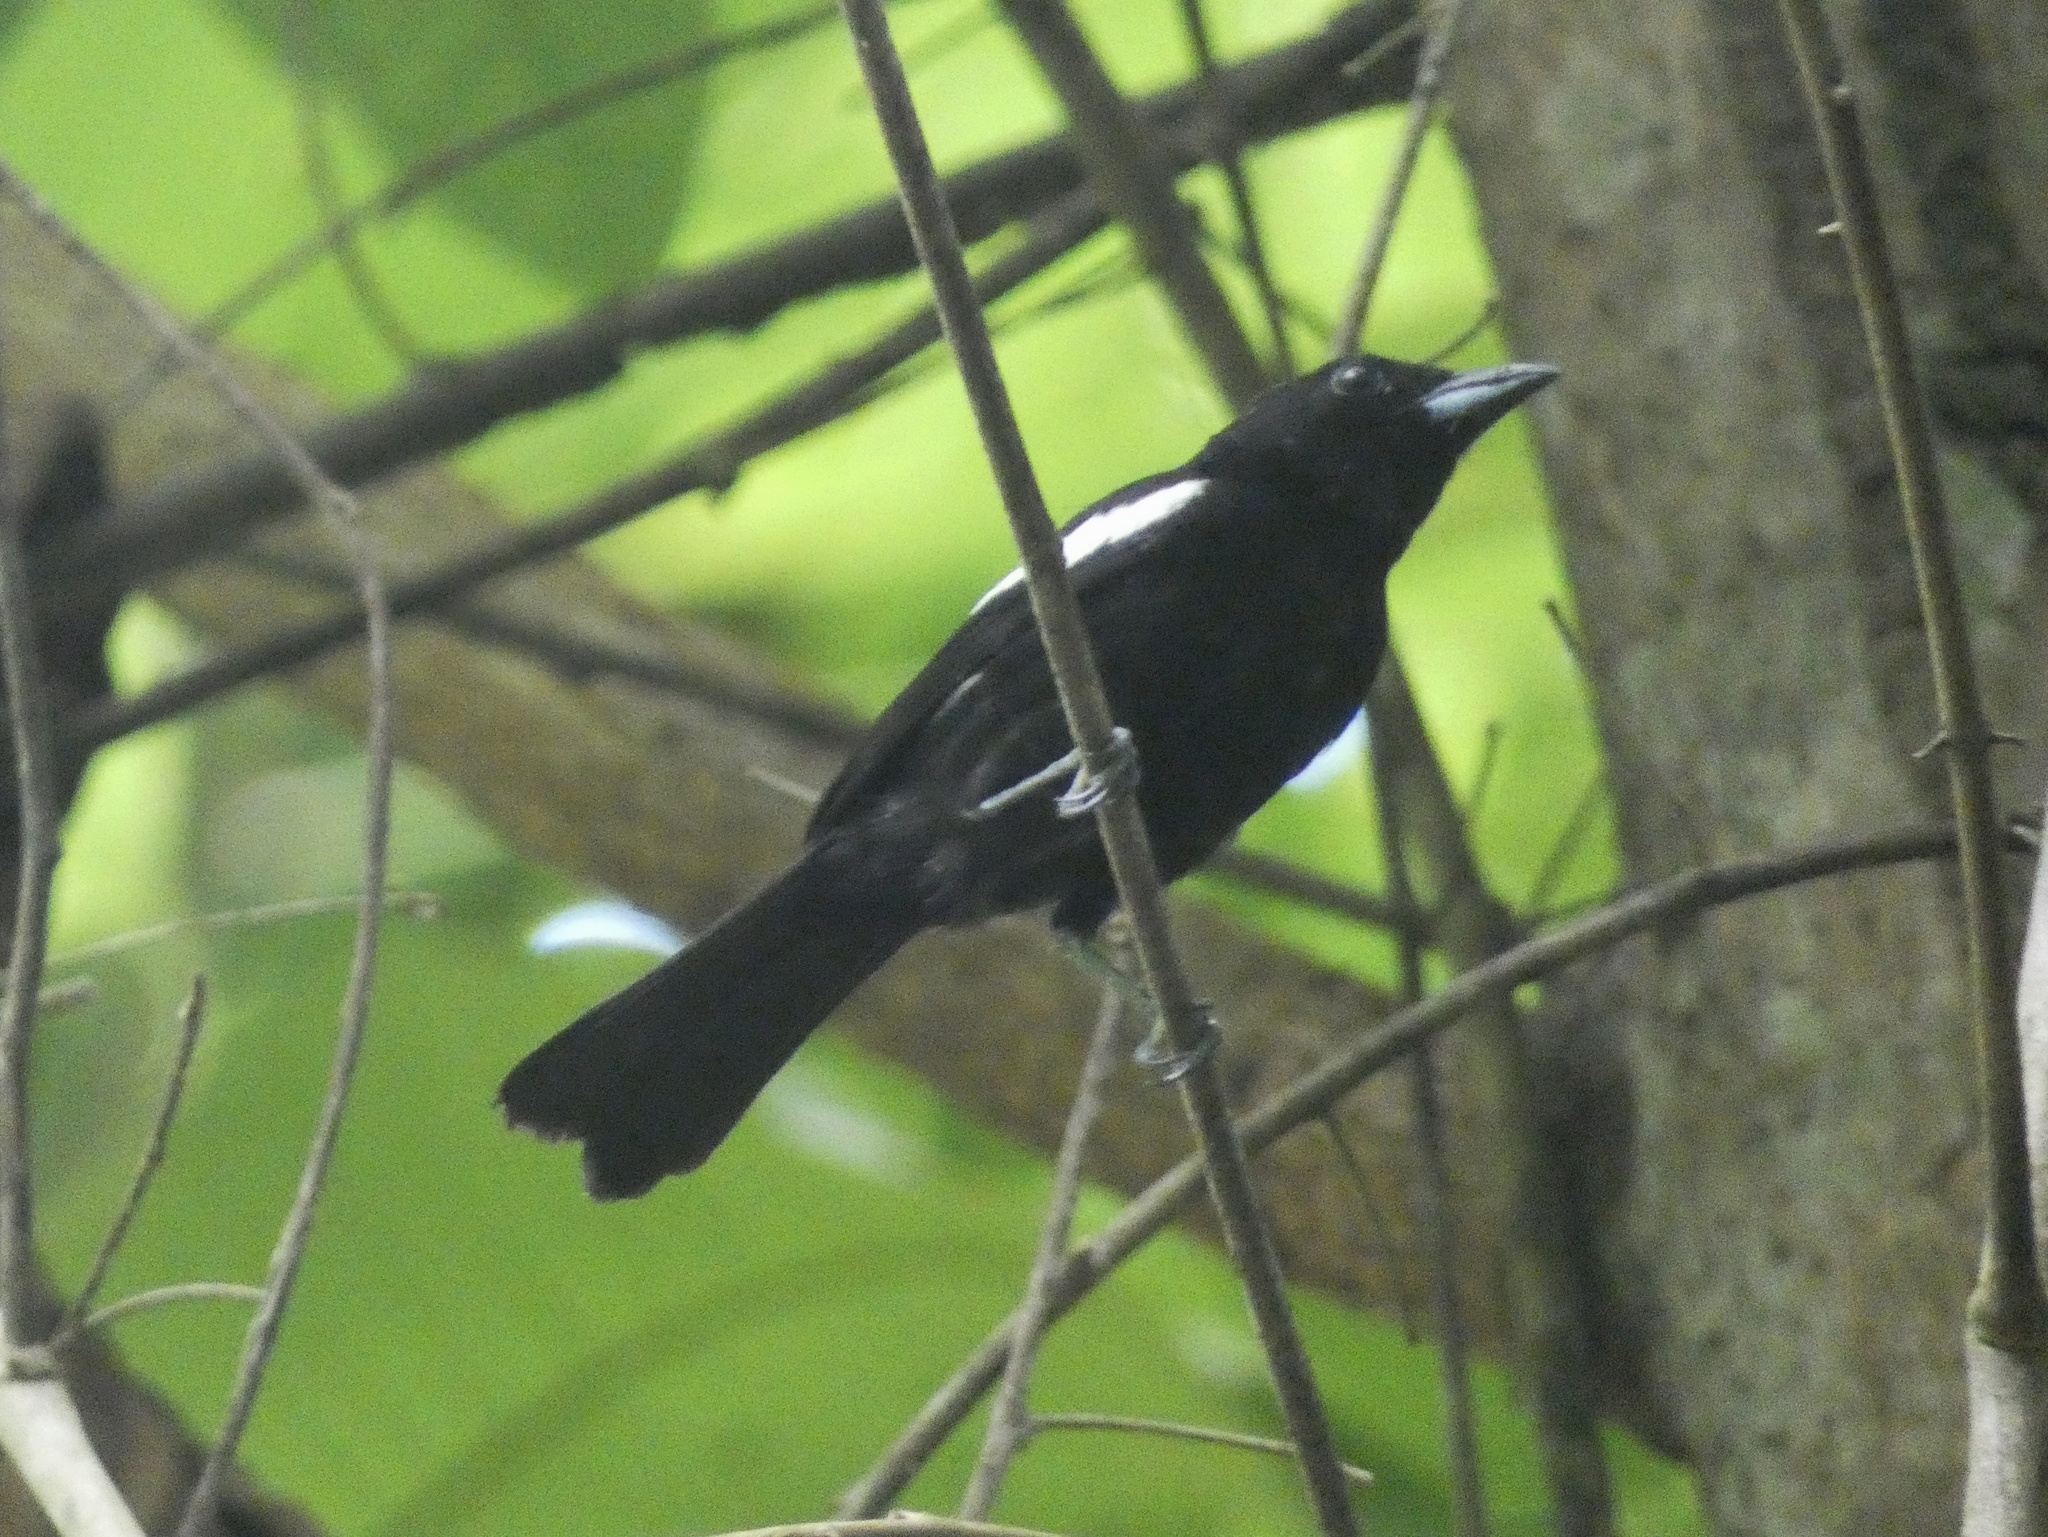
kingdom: Animalia
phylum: Chordata
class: Aves
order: Passeriformes
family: Thraupidae
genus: Loriotus
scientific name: Loriotus luctuosus
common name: White-shouldered tanager
